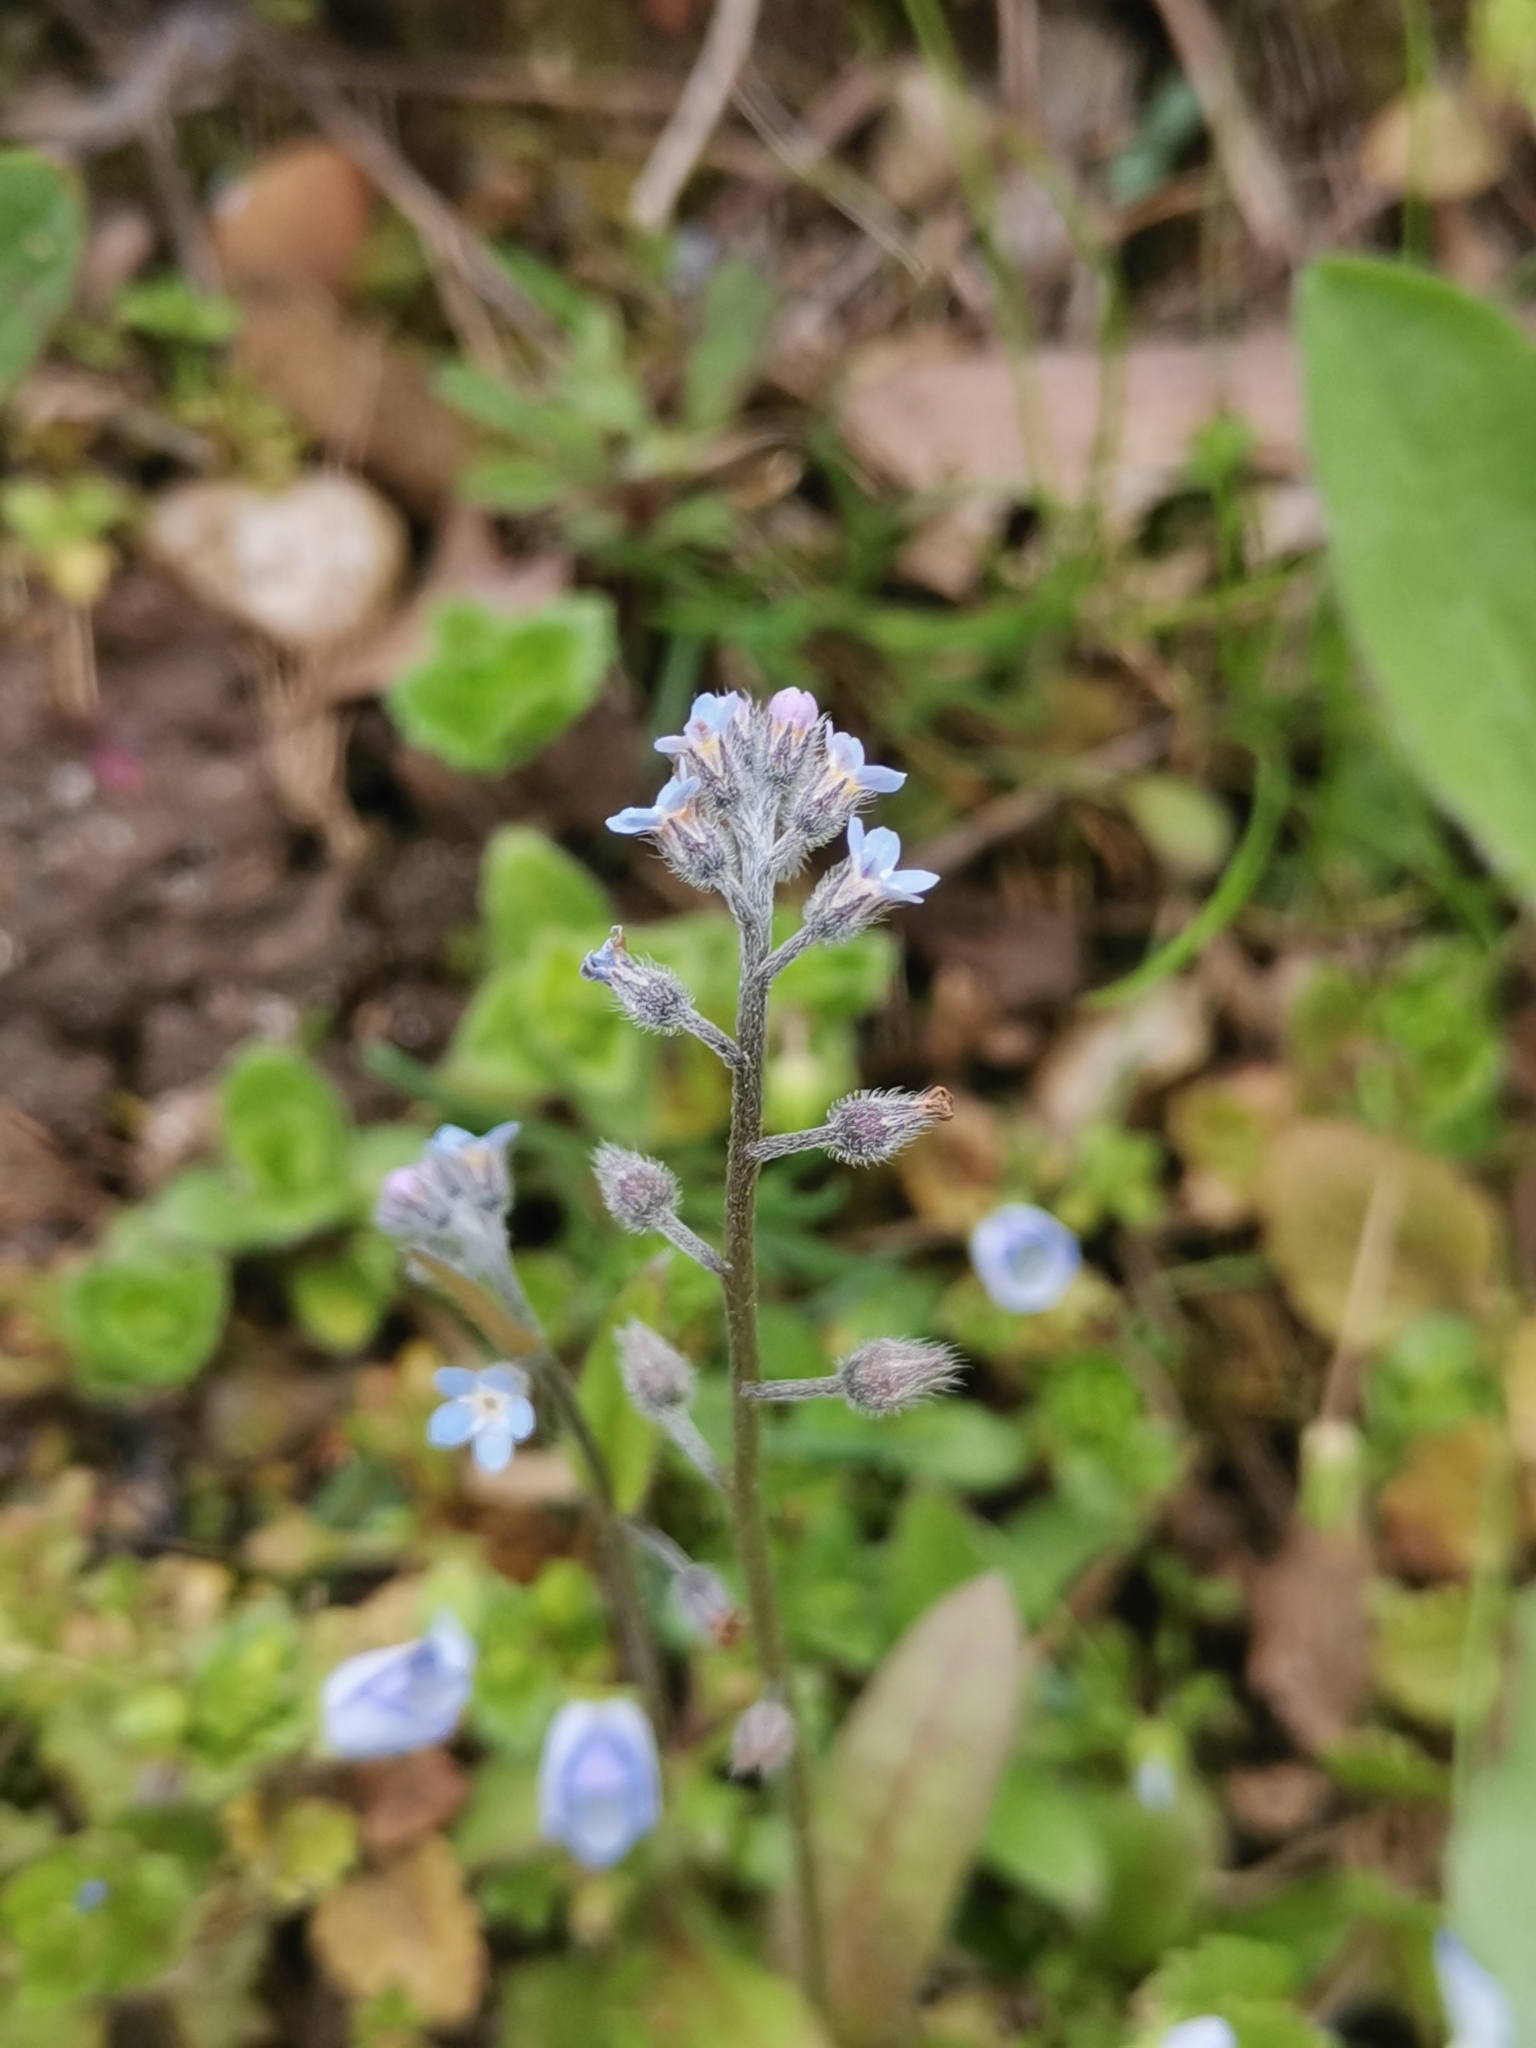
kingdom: Plantae
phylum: Tracheophyta
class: Magnoliopsida
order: Boraginales
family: Boraginaceae
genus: Myosotis
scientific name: Myosotis arvensis
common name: Field forget-me-not
